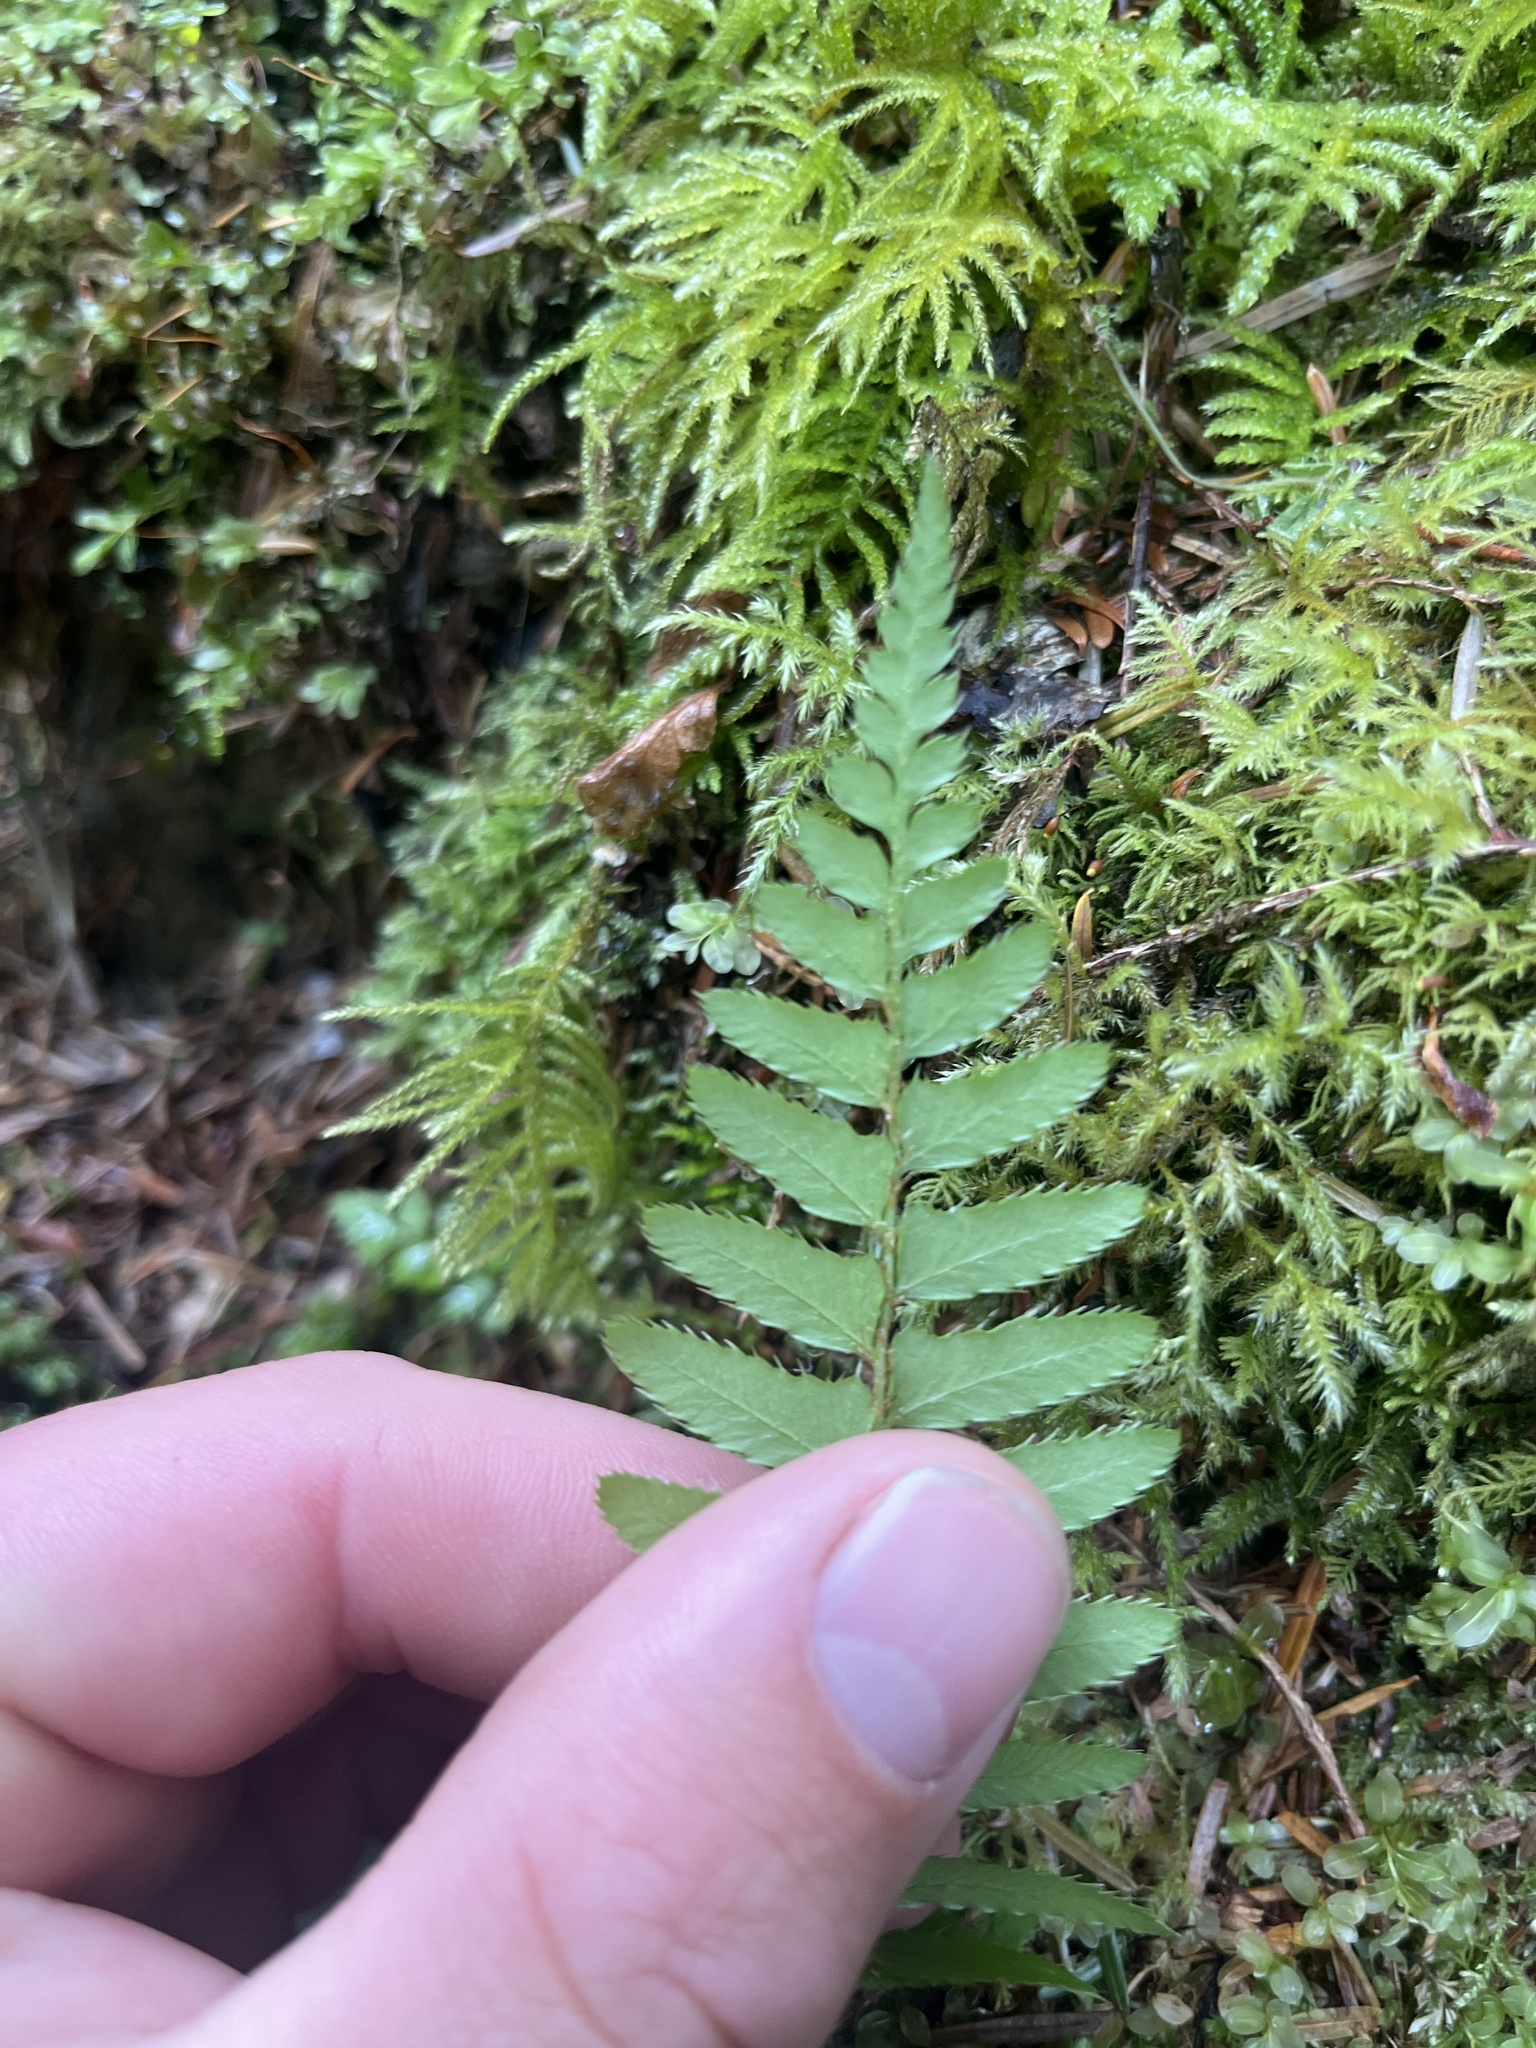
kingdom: Plantae
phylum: Tracheophyta
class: Polypodiopsida
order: Polypodiales
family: Dryopteridaceae
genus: Polystichum
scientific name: Polystichum munitum
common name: Western sword-fern
